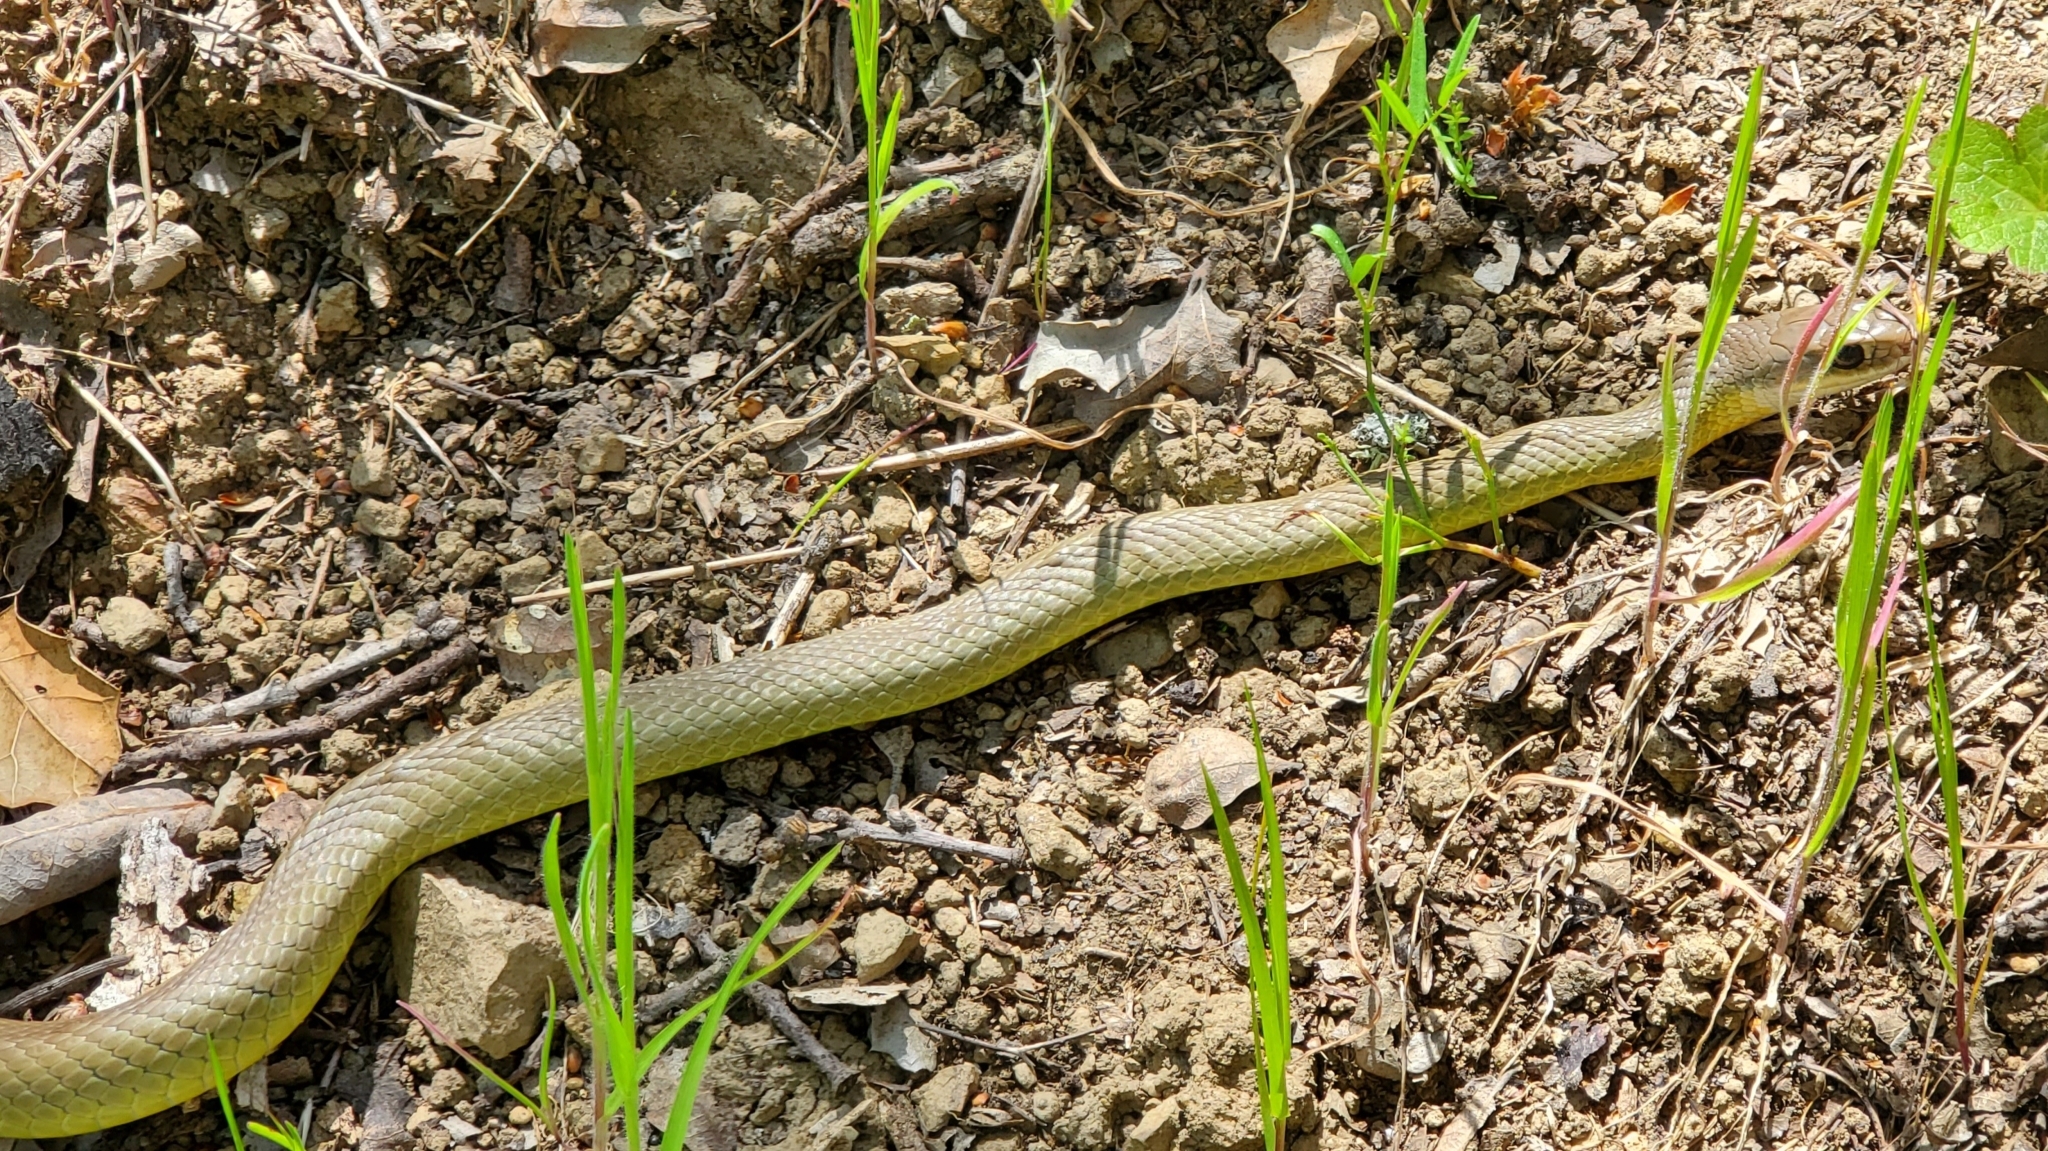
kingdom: Animalia
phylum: Chordata
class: Squamata
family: Colubridae
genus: Coluber
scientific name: Coluber constrictor
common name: Eastern racer
